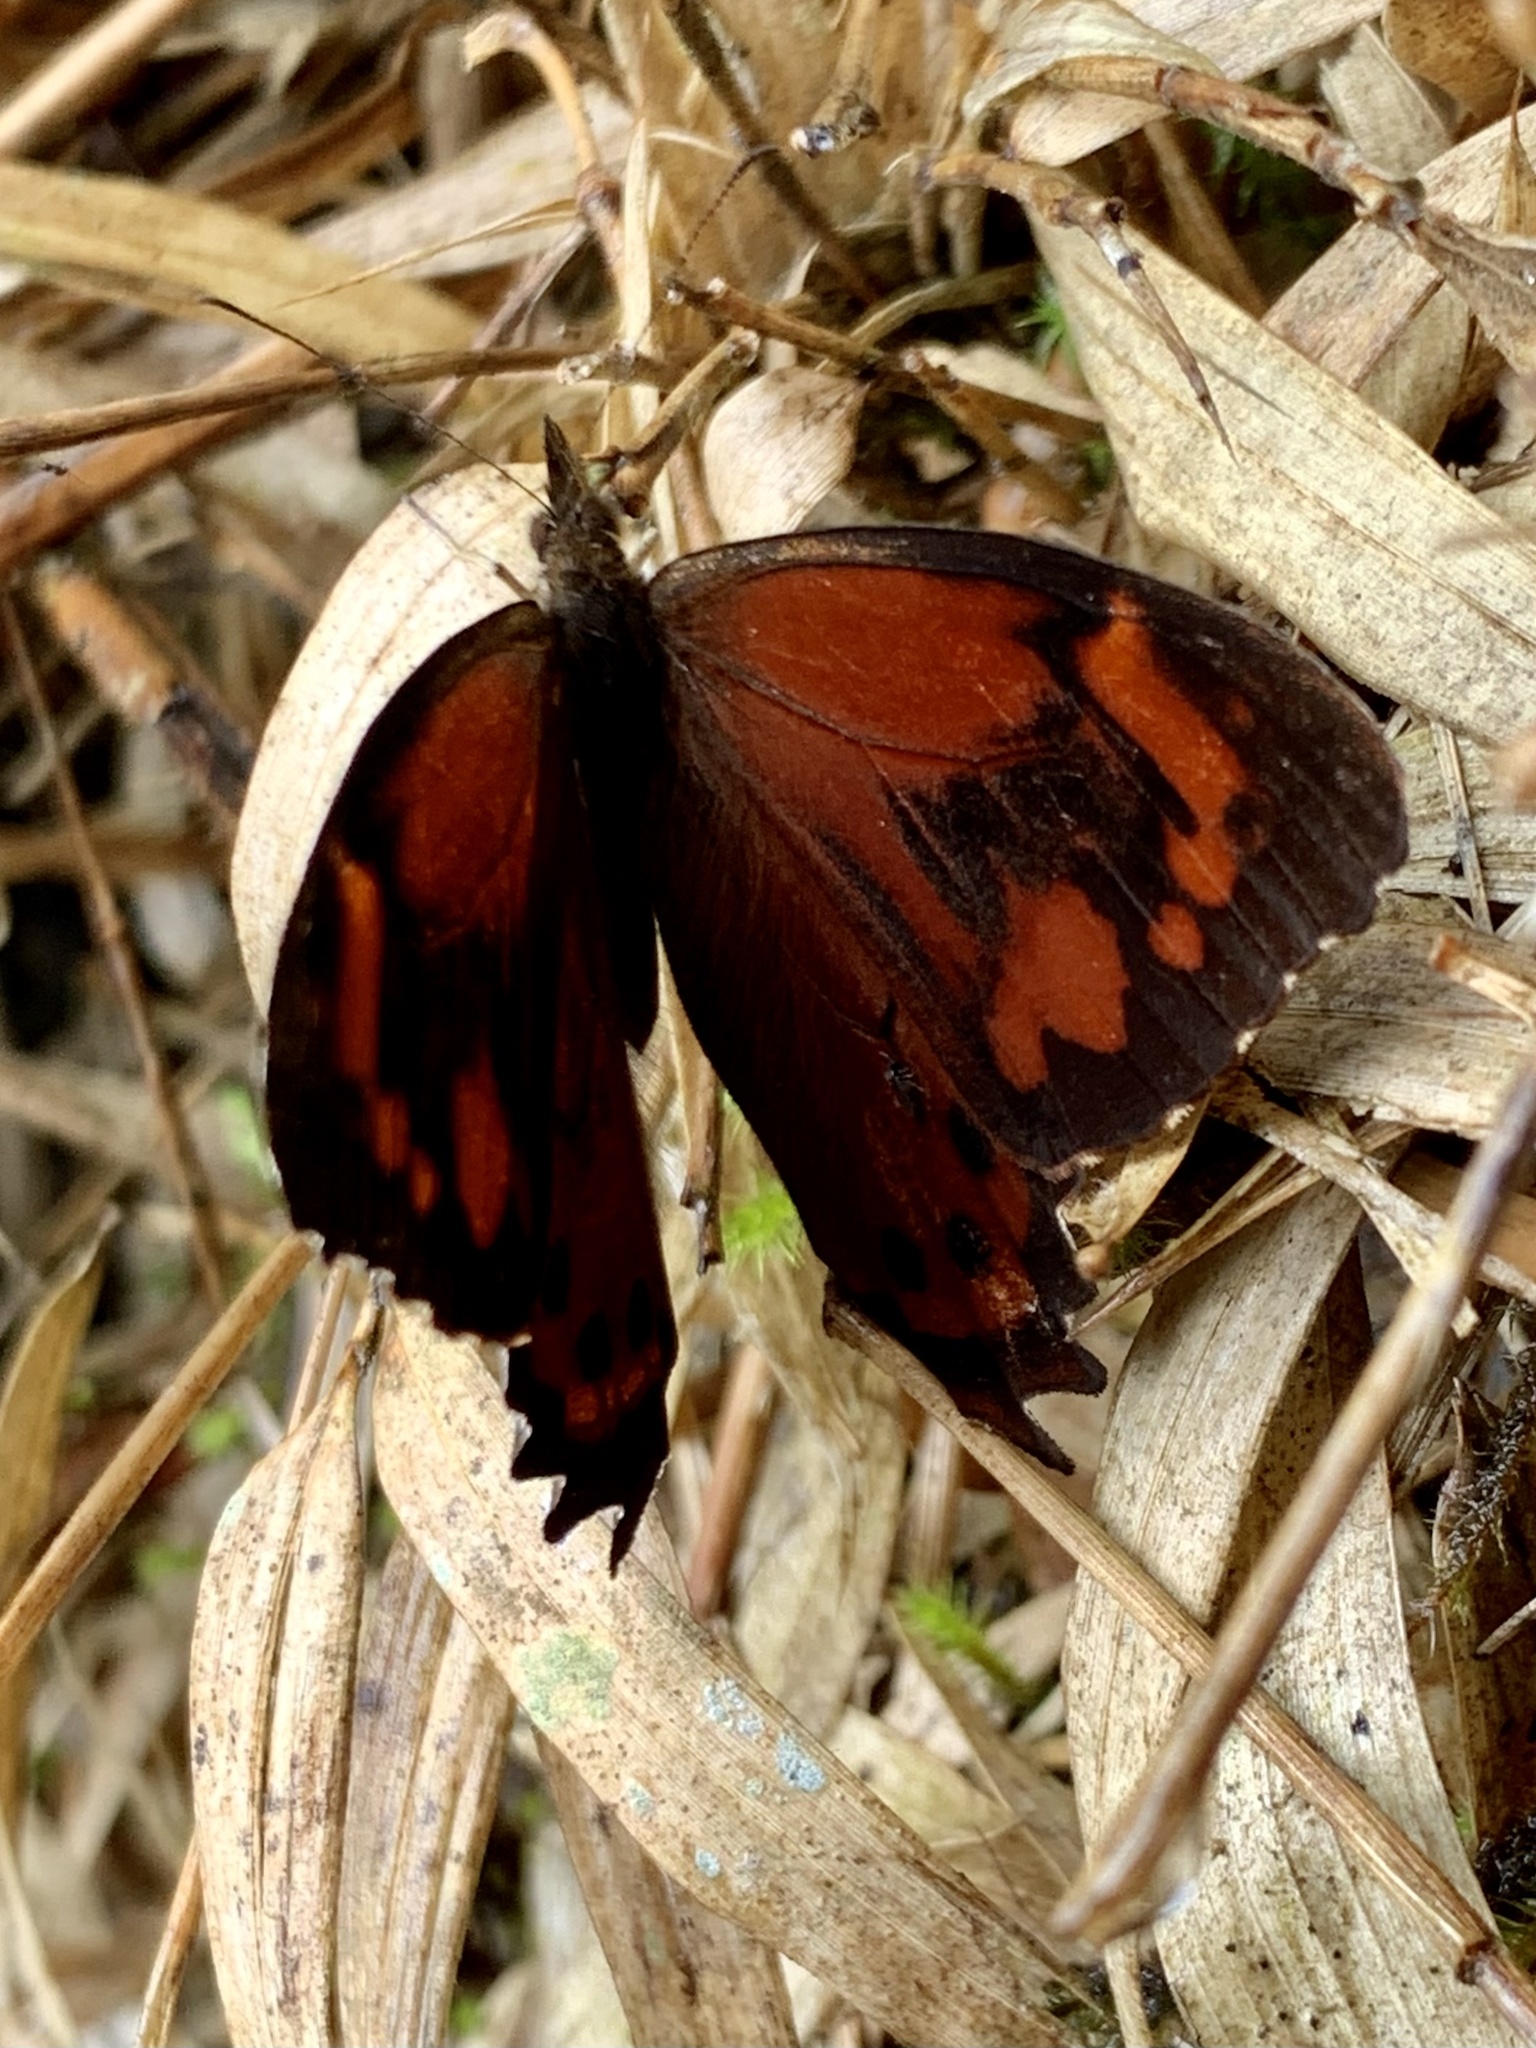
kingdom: Animalia
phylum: Arthropoda
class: Insecta
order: Lepidoptera
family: Nymphalidae
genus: Lasiophila
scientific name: Lasiophila zapatoza
